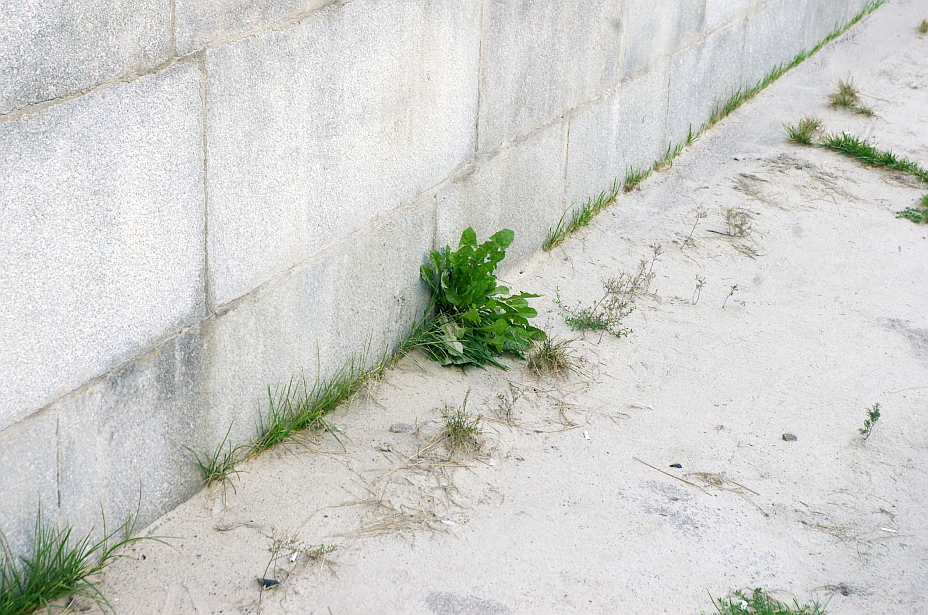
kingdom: Plantae
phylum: Tracheophyta
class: Magnoliopsida
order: Asterales
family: Asteraceae
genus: Taraxacum
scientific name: Taraxacum officinale
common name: Common dandelion
